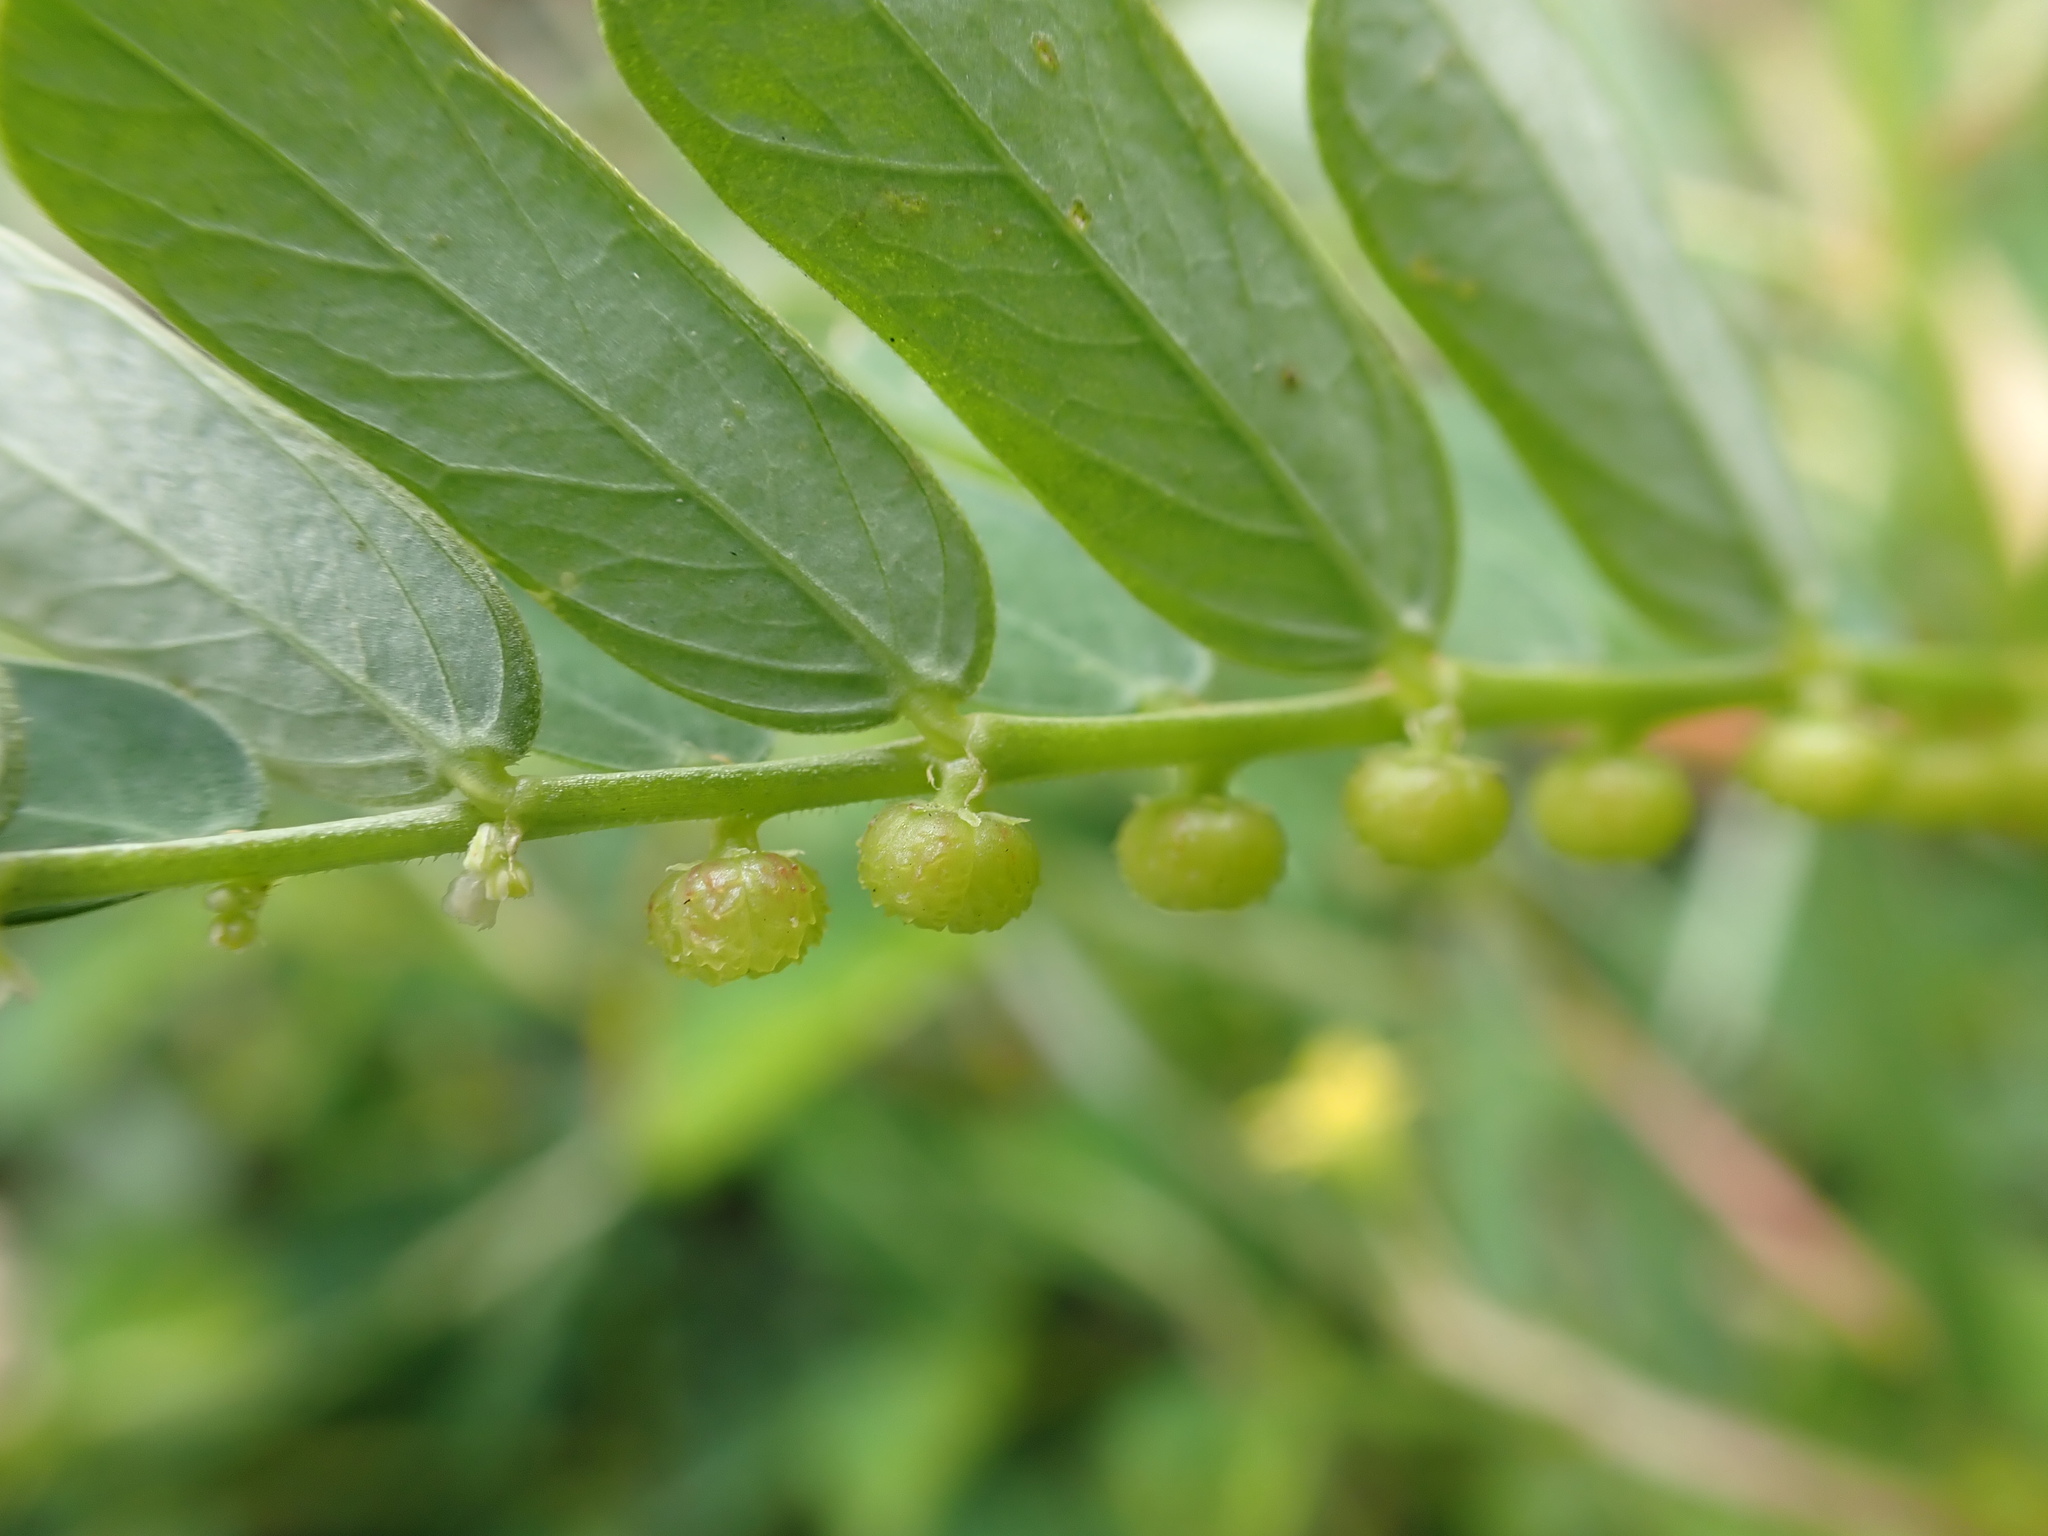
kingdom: Plantae
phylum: Tracheophyta
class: Magnoliopsida
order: Malpighiales
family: Phyllanthaceae
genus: Phyllanthus
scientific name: Phyllanthus urinaria
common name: Chamber bitter
